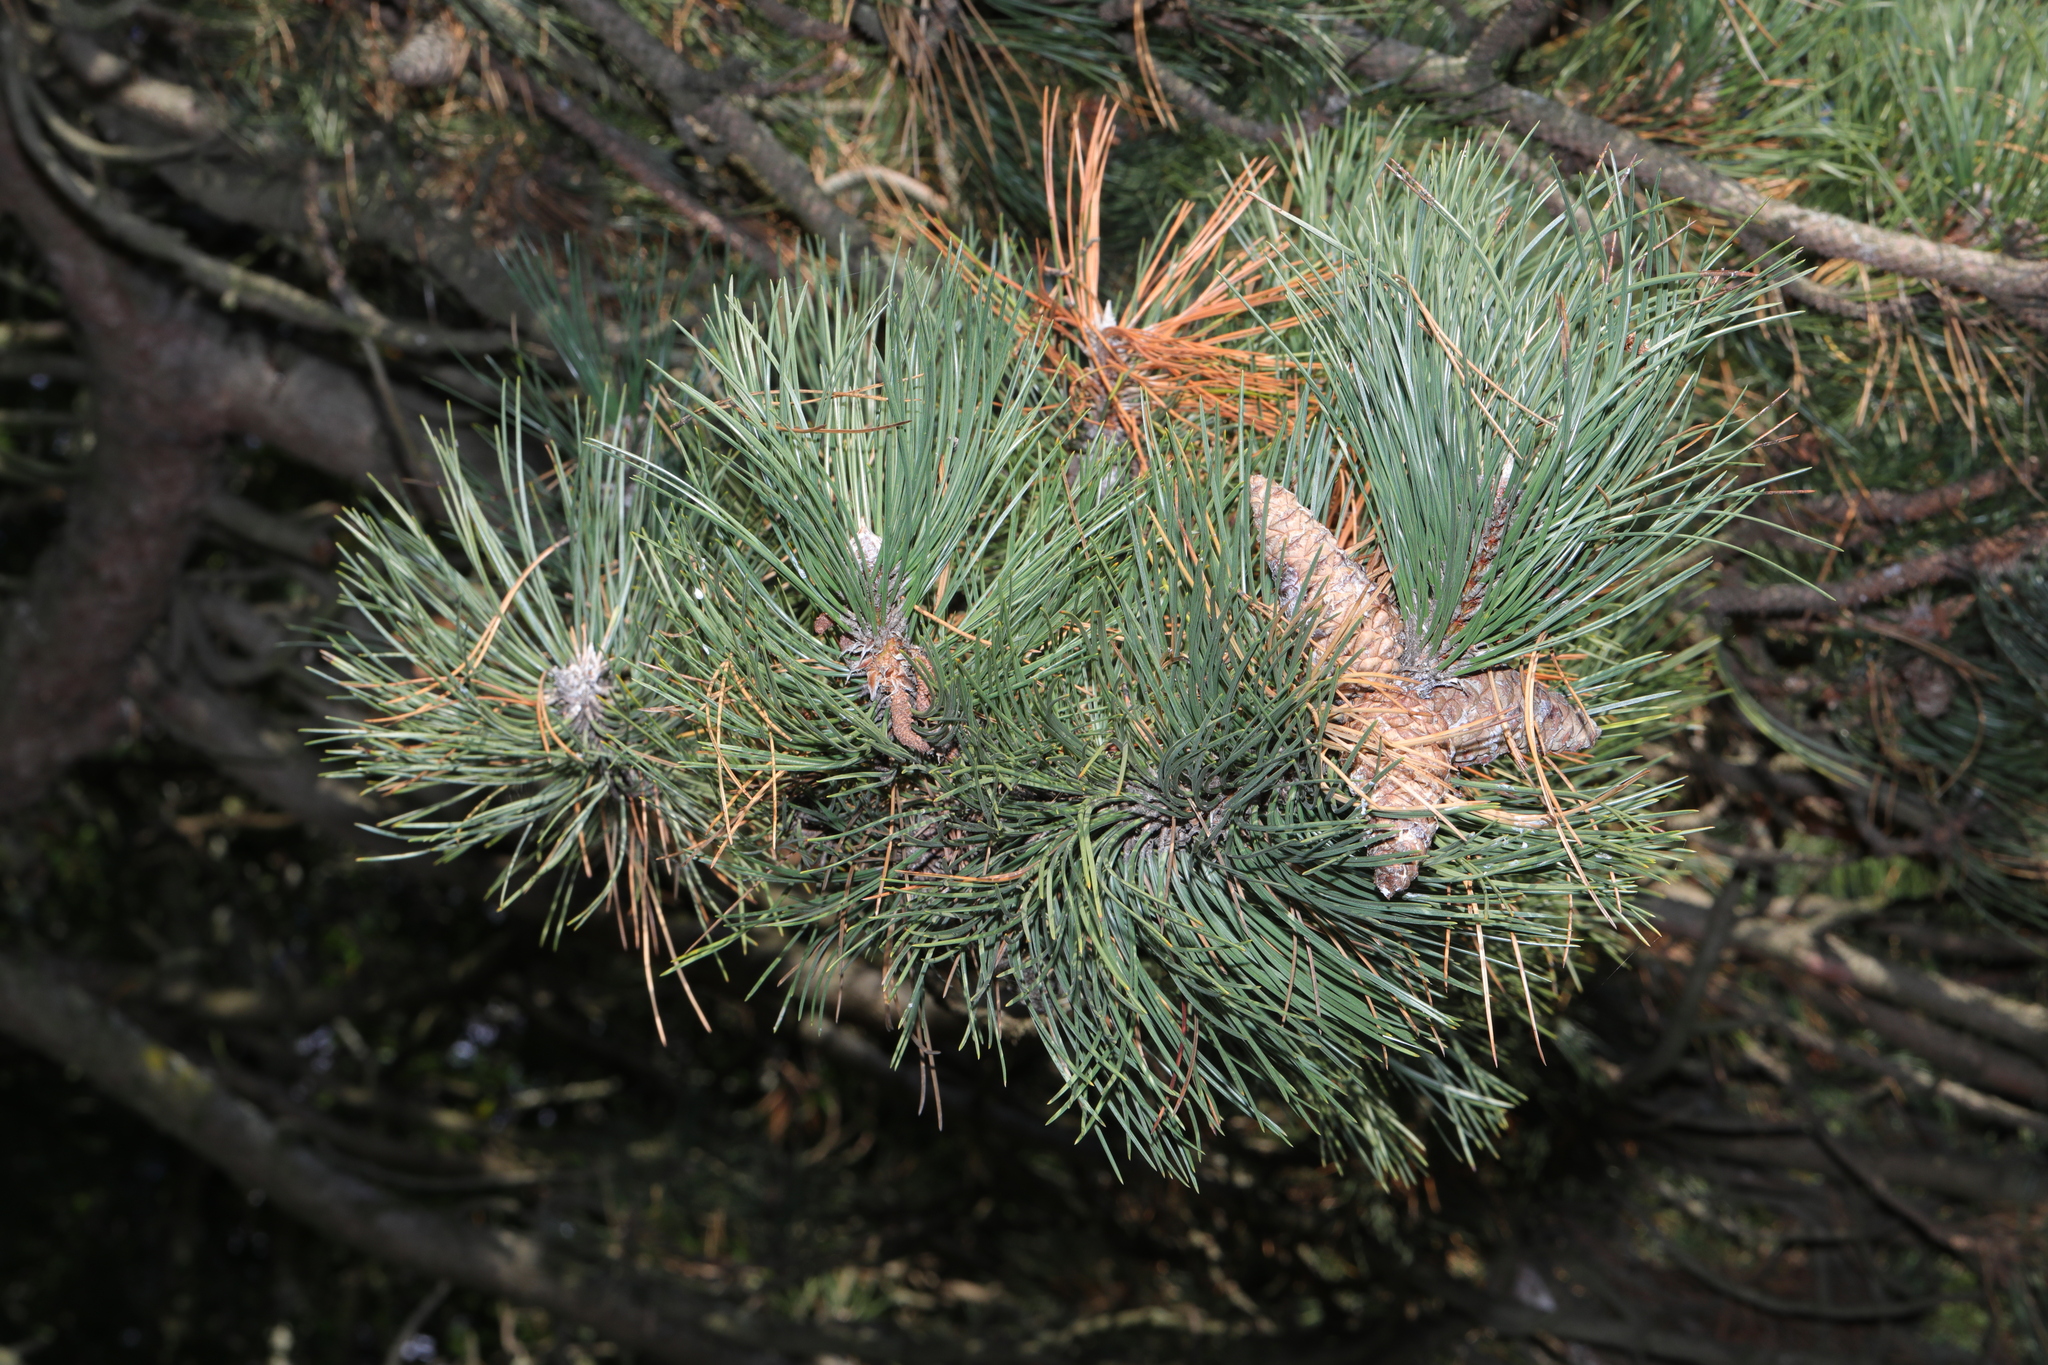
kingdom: Plantae
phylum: Tracheophyta
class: Pinopsida
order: Pinales
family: Pinaceae
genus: Pinus
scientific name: Pinus nigra
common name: Austrian pine
